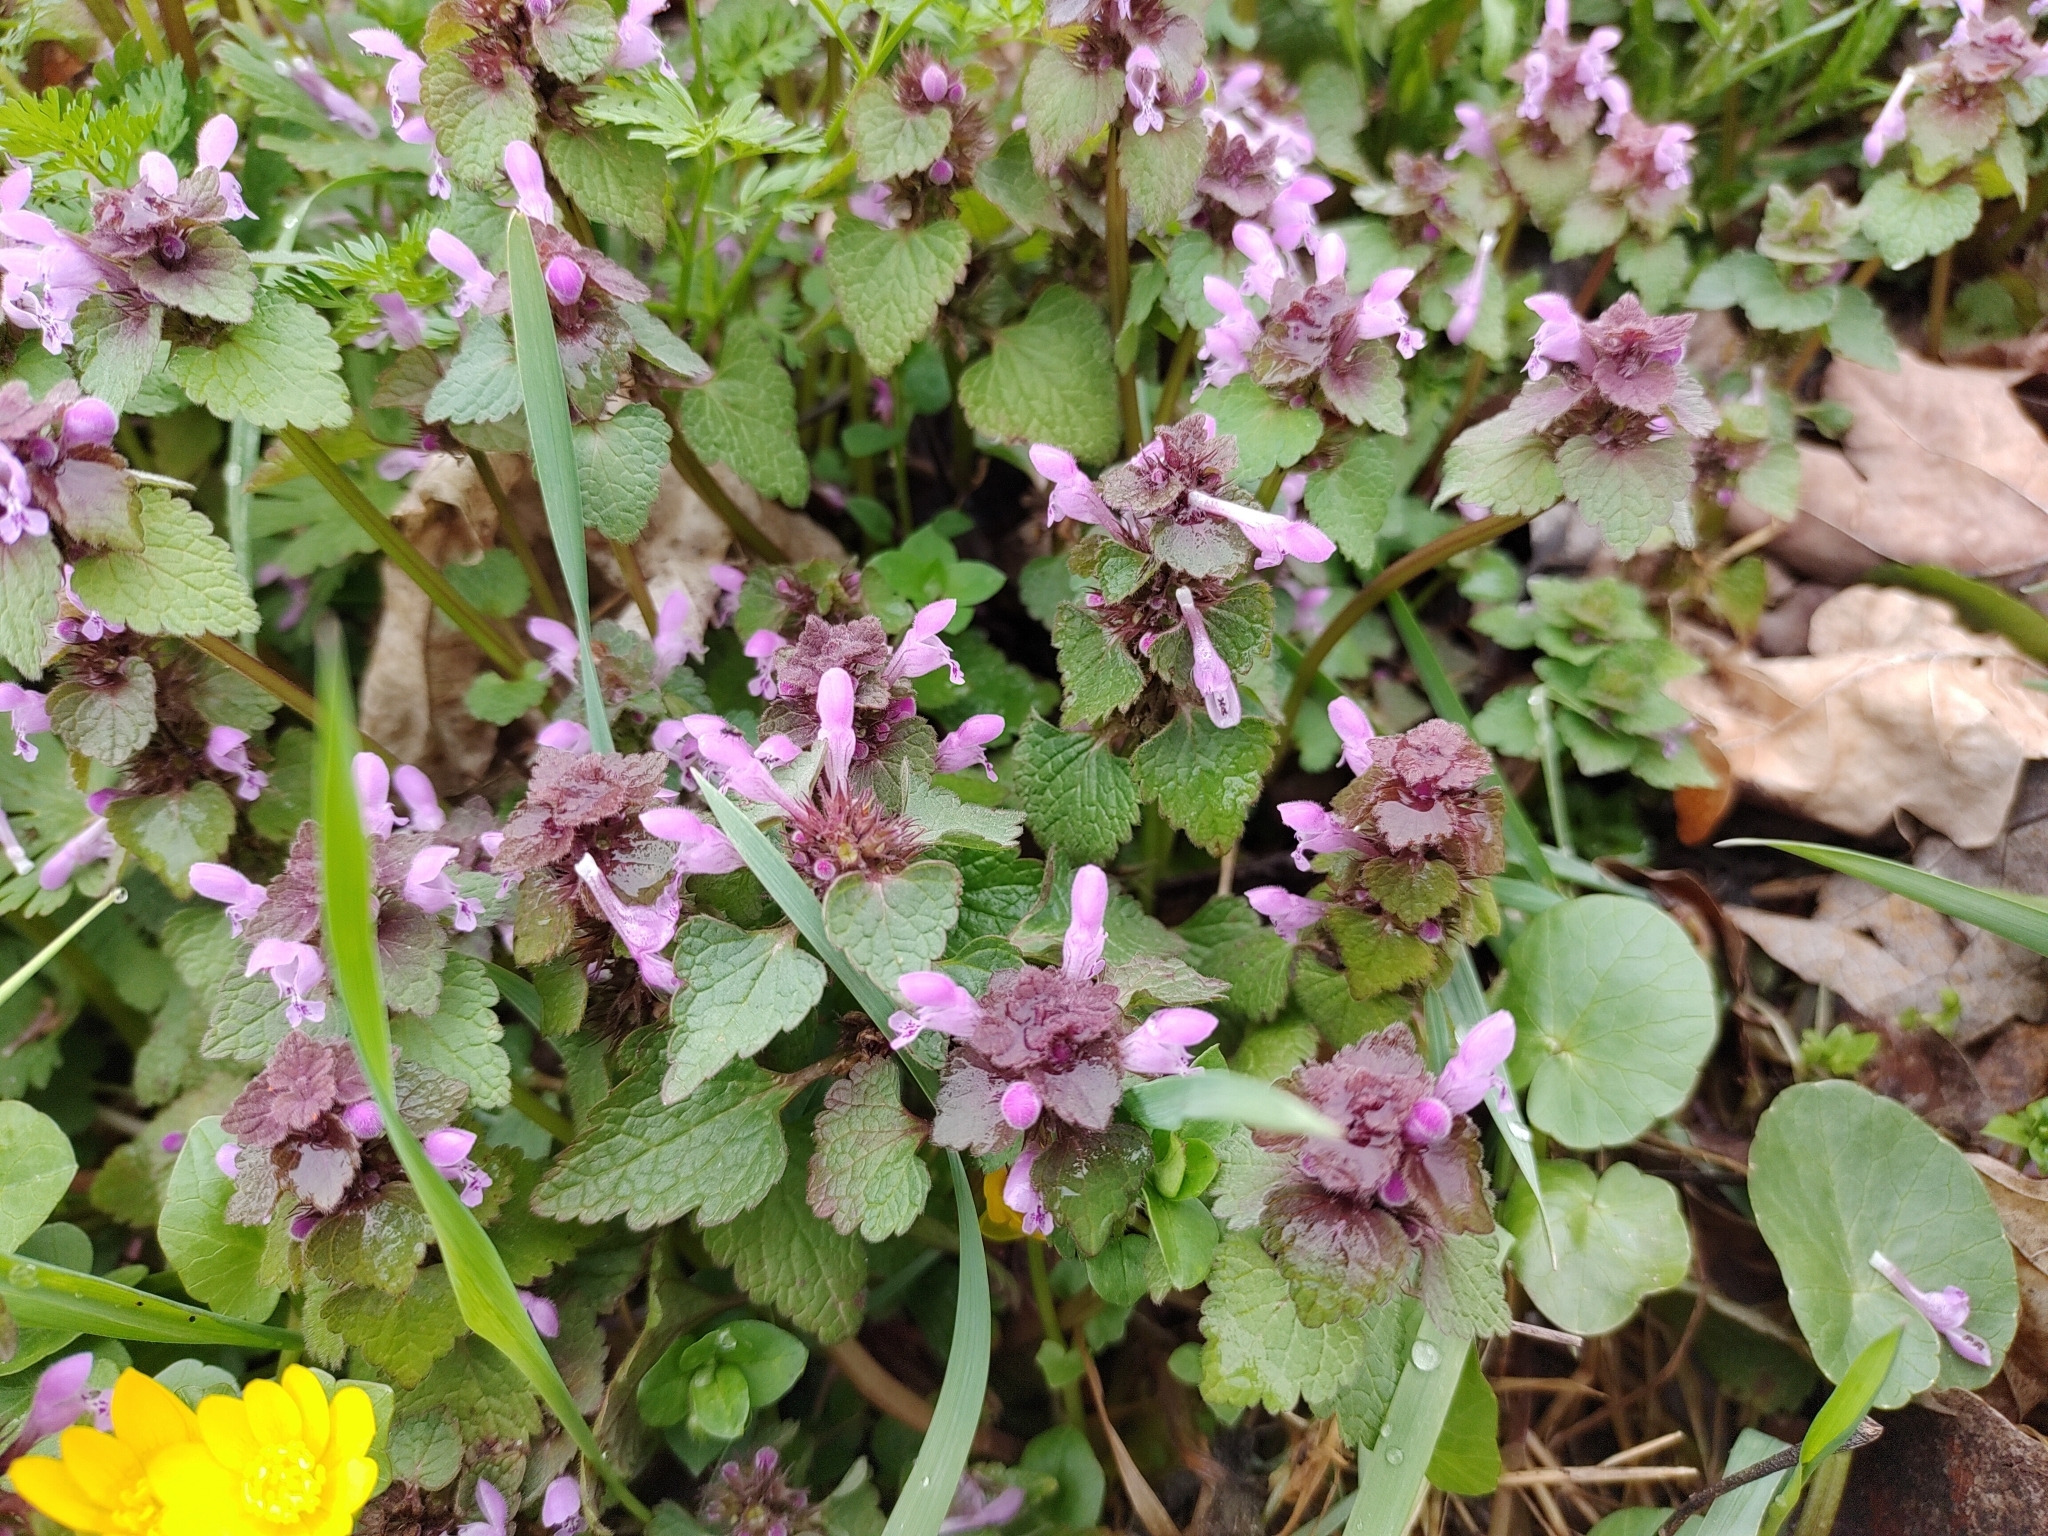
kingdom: Plantae
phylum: Tracheophyta
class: Magnoliopsida
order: Lamiales
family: Lamiaceae
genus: Lamium
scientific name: Lamium purpureum
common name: Red dead-nettle
